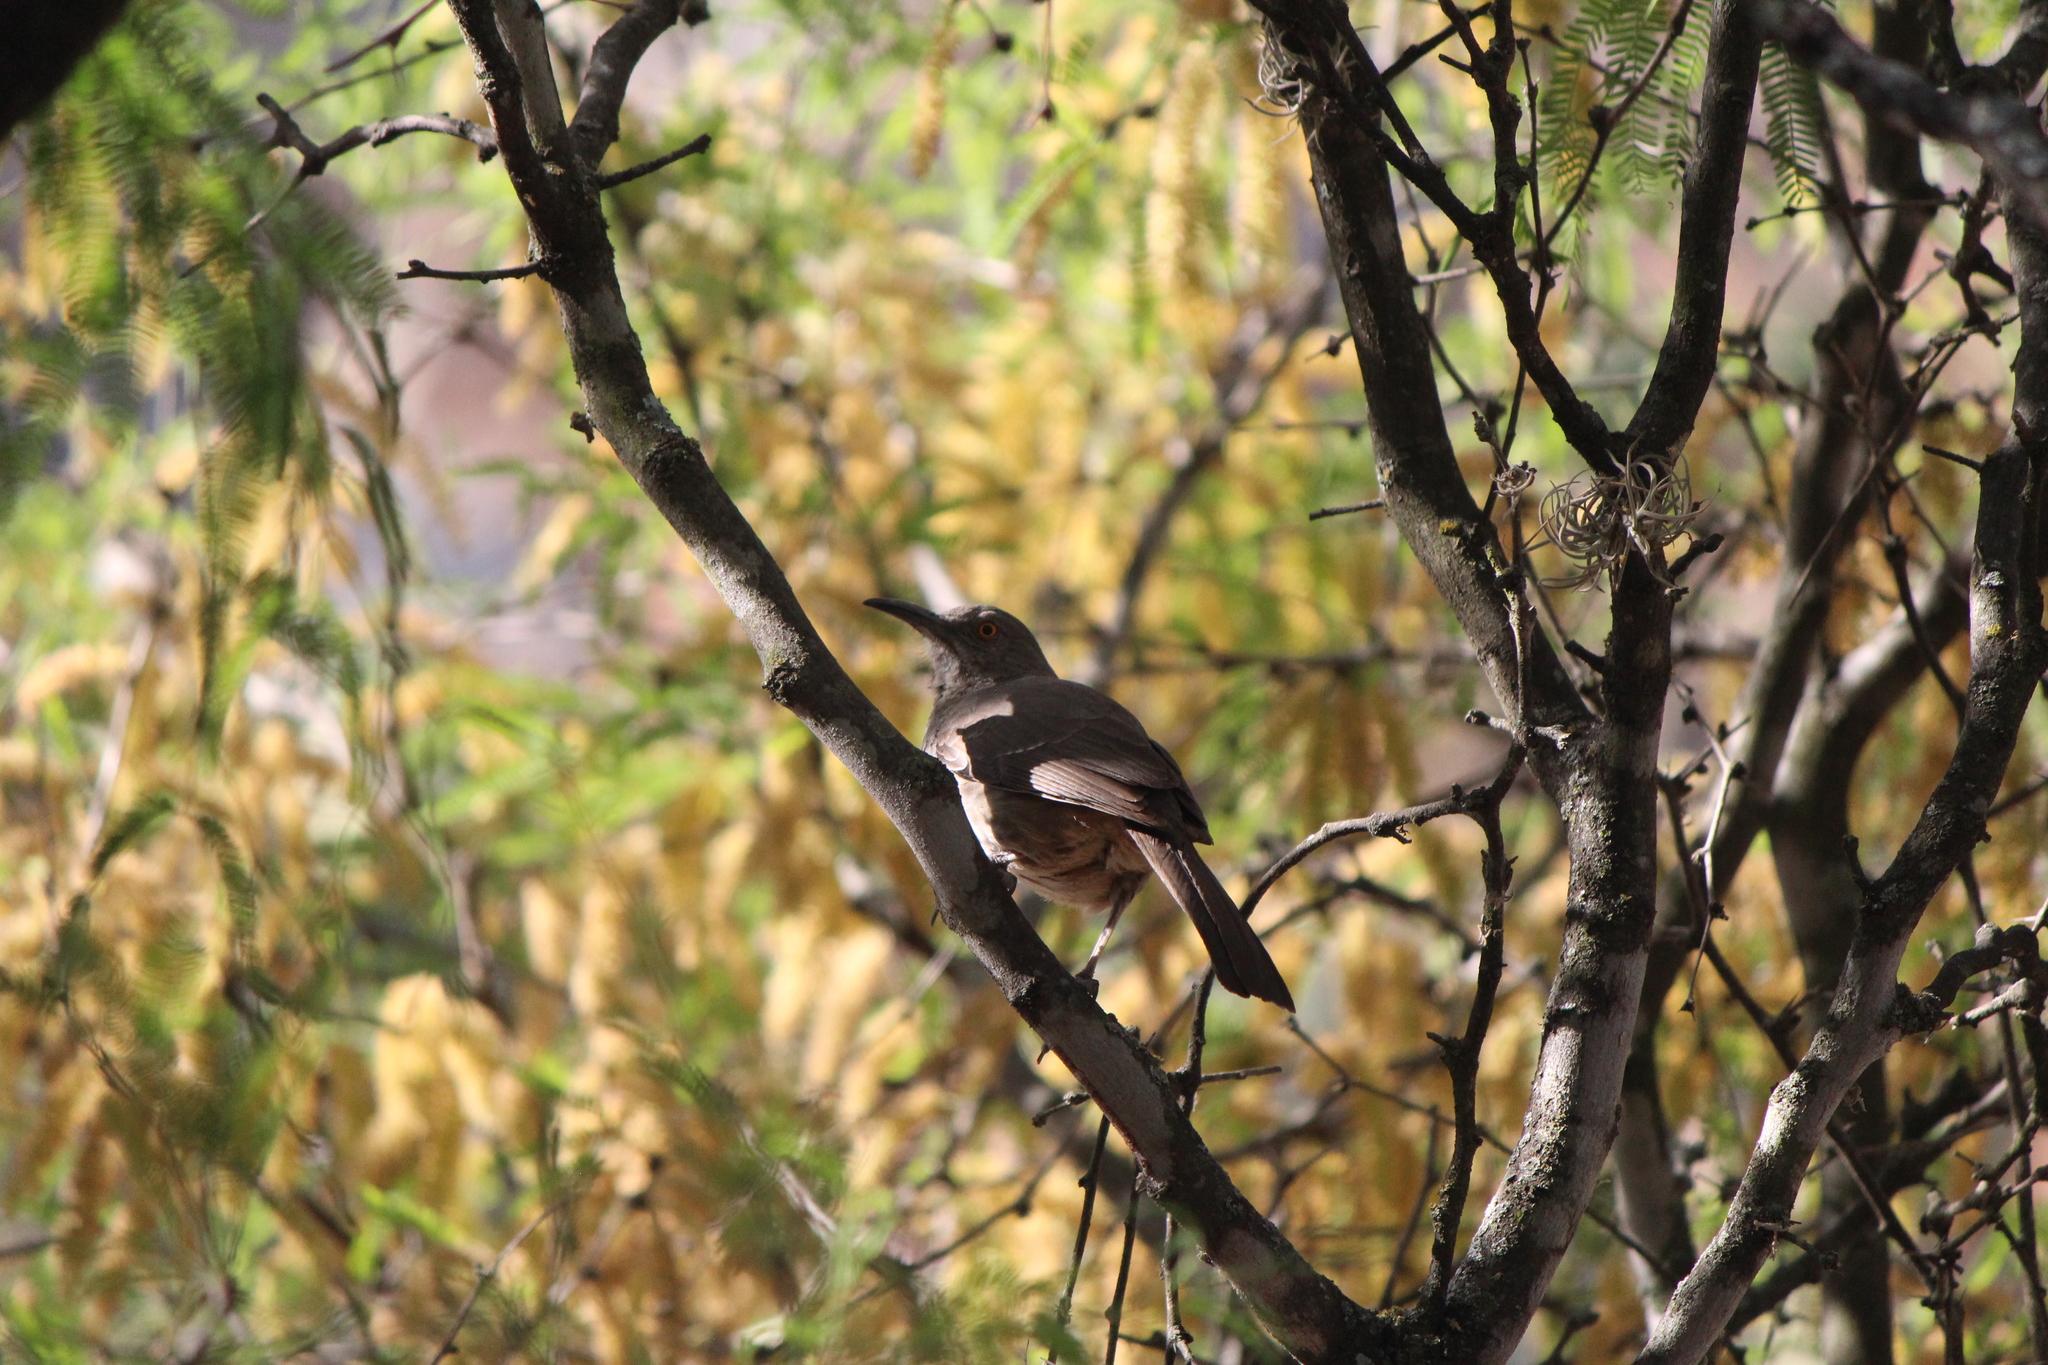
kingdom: Animalia
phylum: Chordata
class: Aves
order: Passeriformes
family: Mimidae
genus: Toxostoma
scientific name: Toxostoma curvirostre
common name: Curve-billed thrasher
